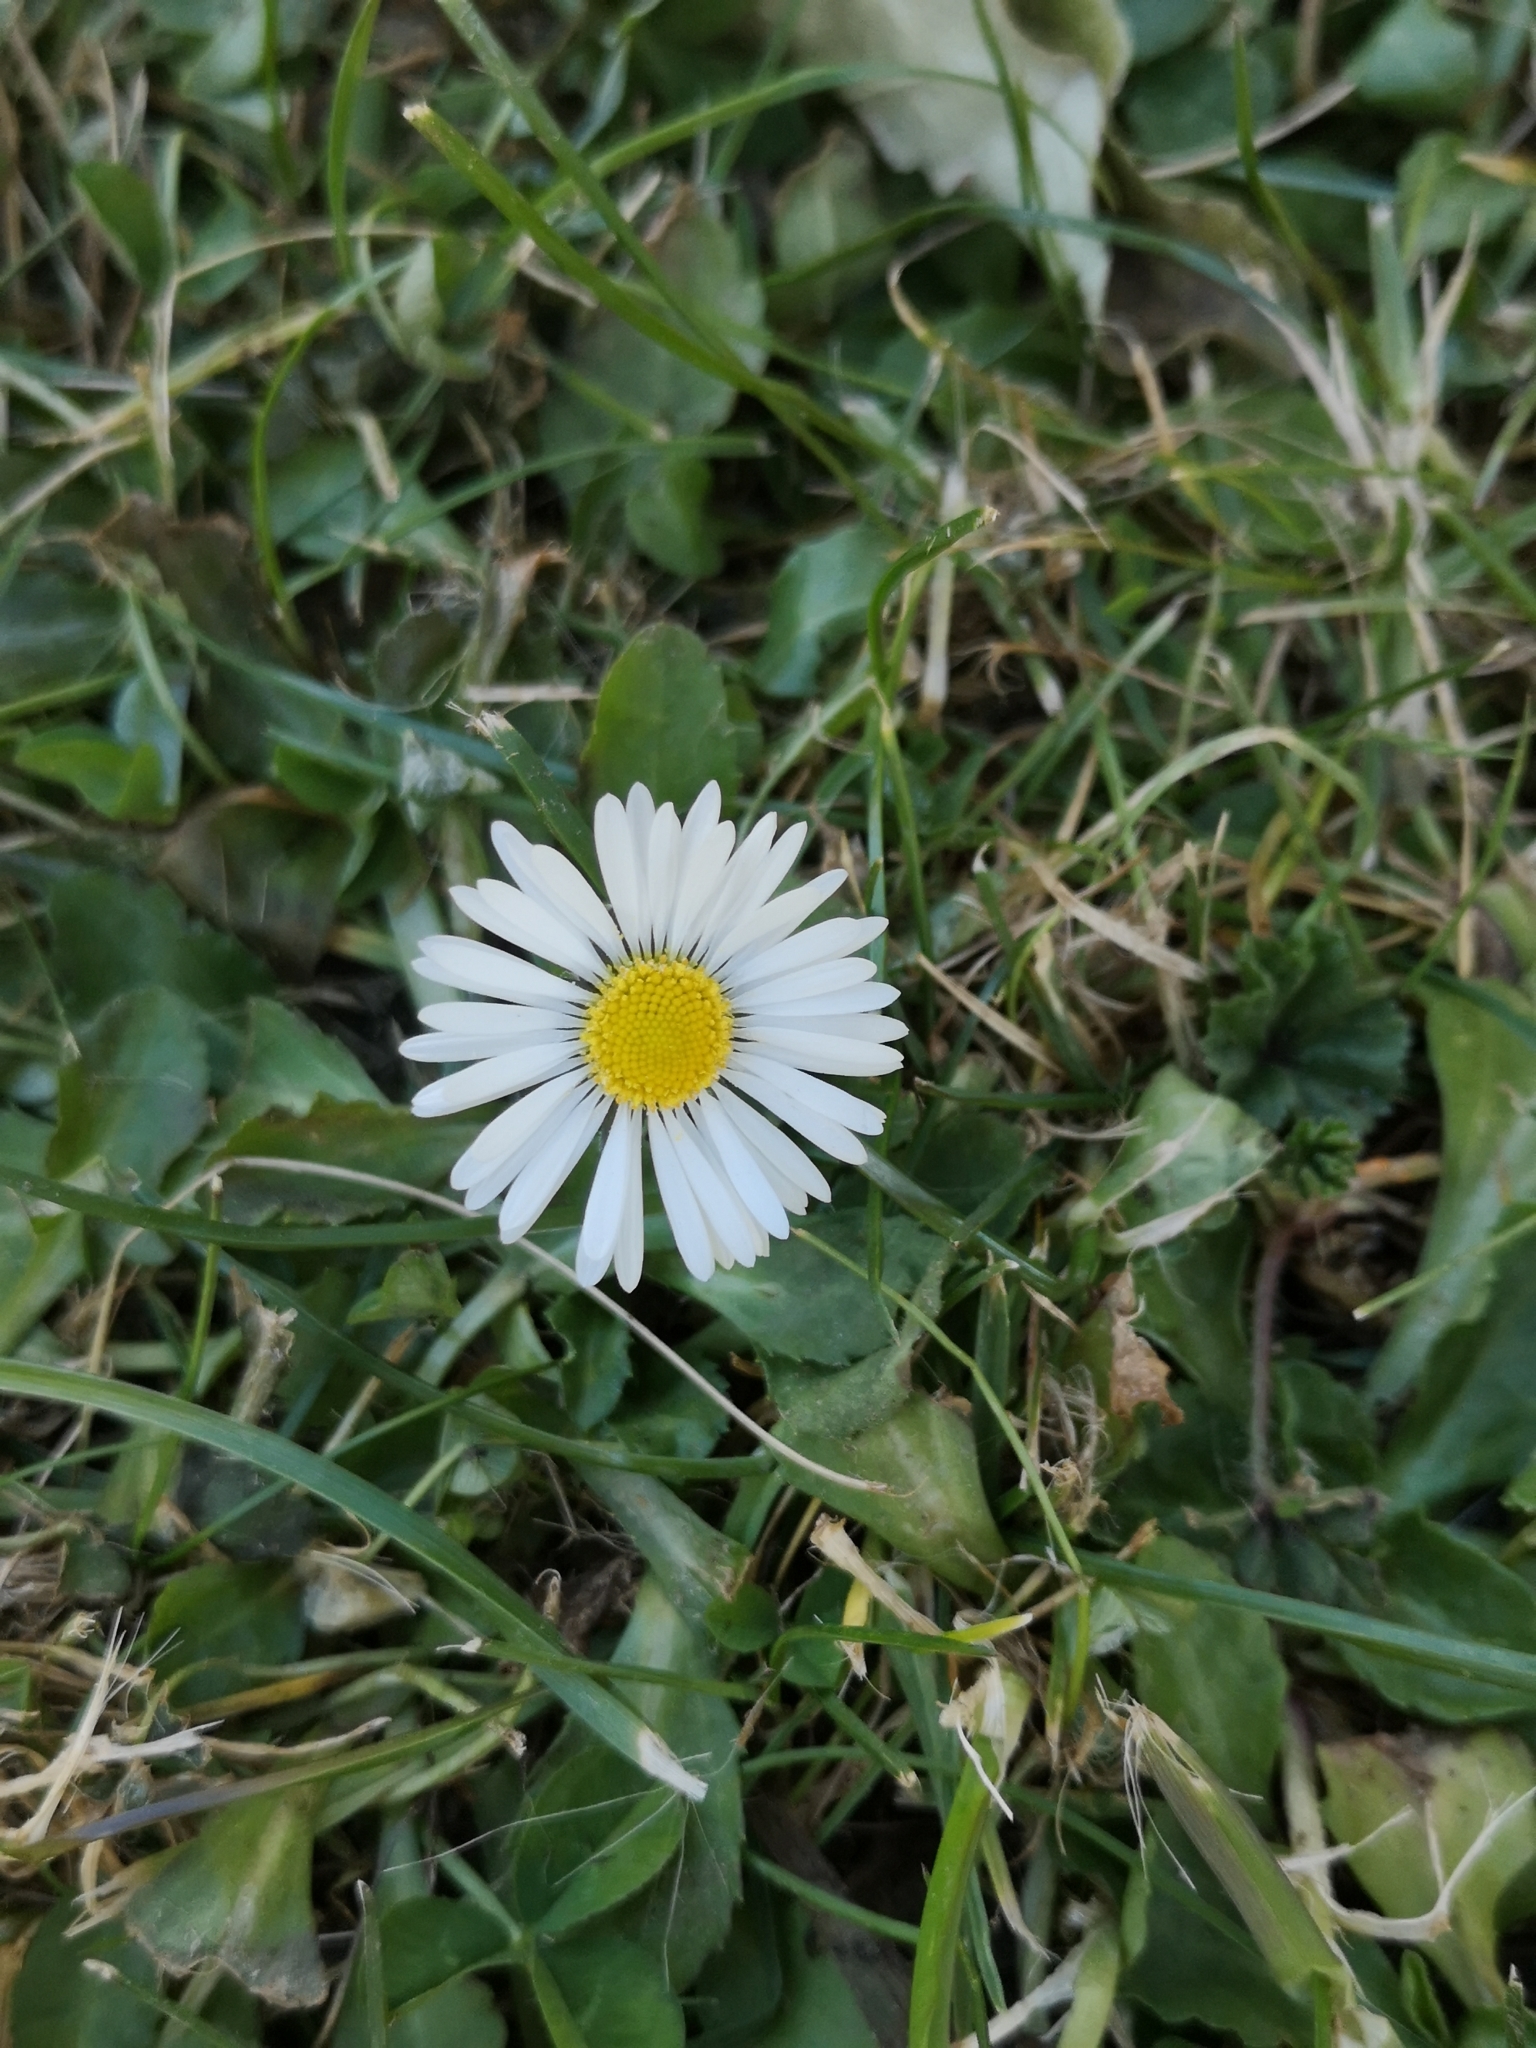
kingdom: Plantae
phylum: Tracheophyta
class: Magnoliopsida
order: Asterales
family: Asteraceae
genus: Bellis
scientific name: Bellis perennis
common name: Lawndaisy
